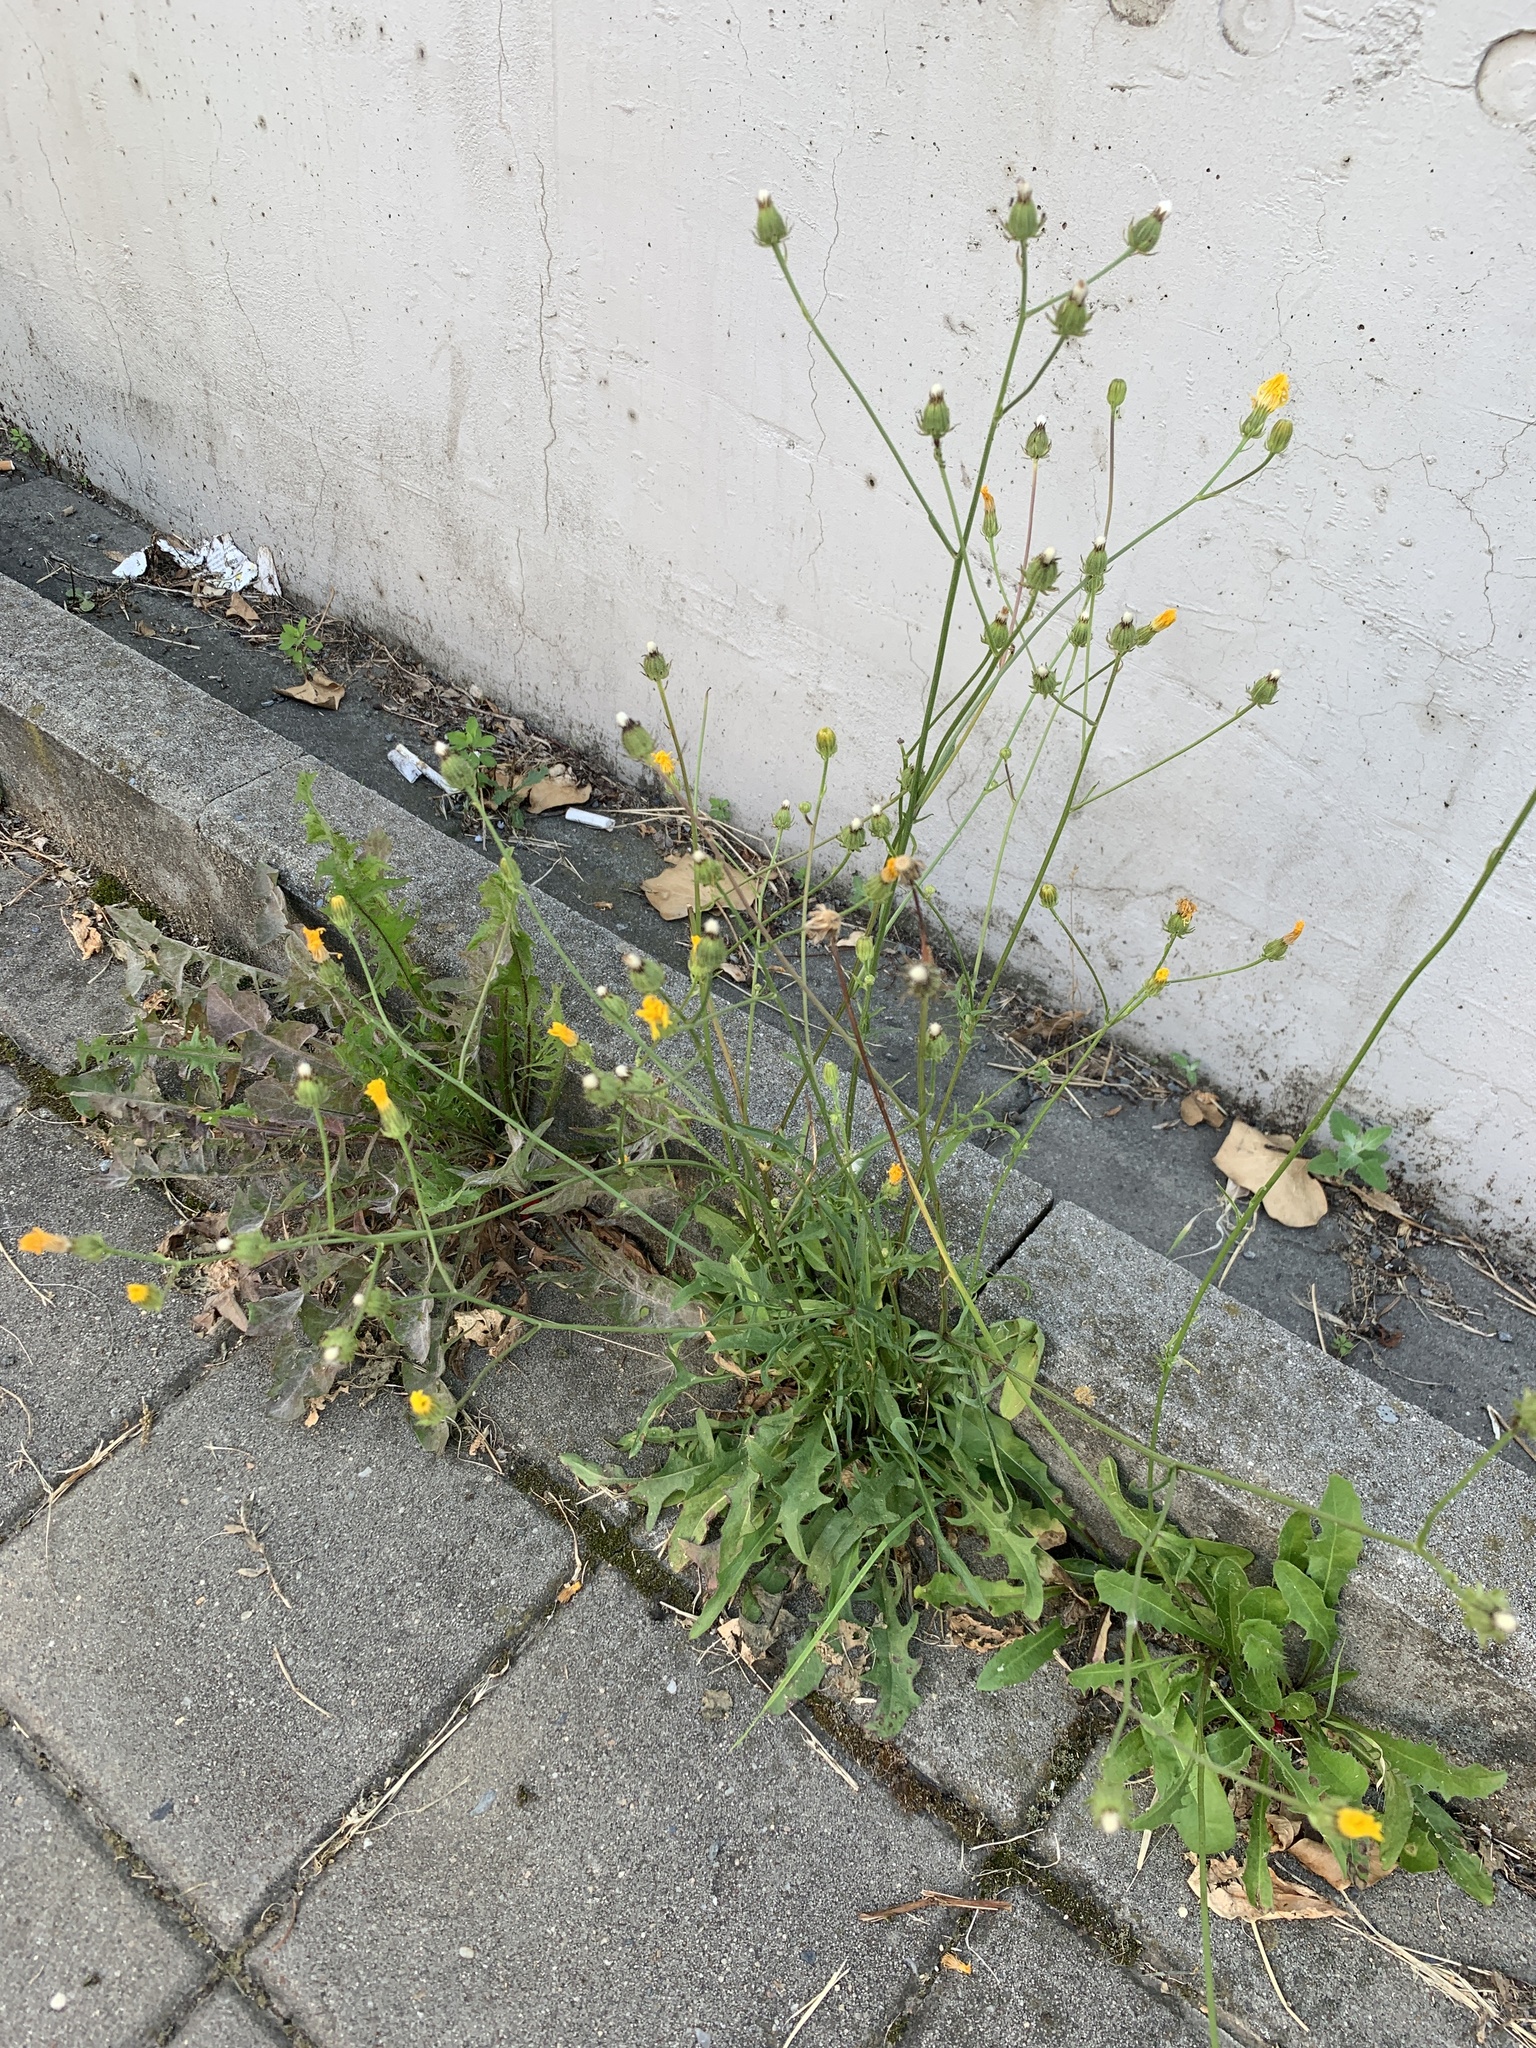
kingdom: Plantae
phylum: Tracheophyta
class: Magnoliopsida
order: Asterales
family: Asteraceae
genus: Crepis
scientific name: Crepis biennis
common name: Rough hawk's-beard
